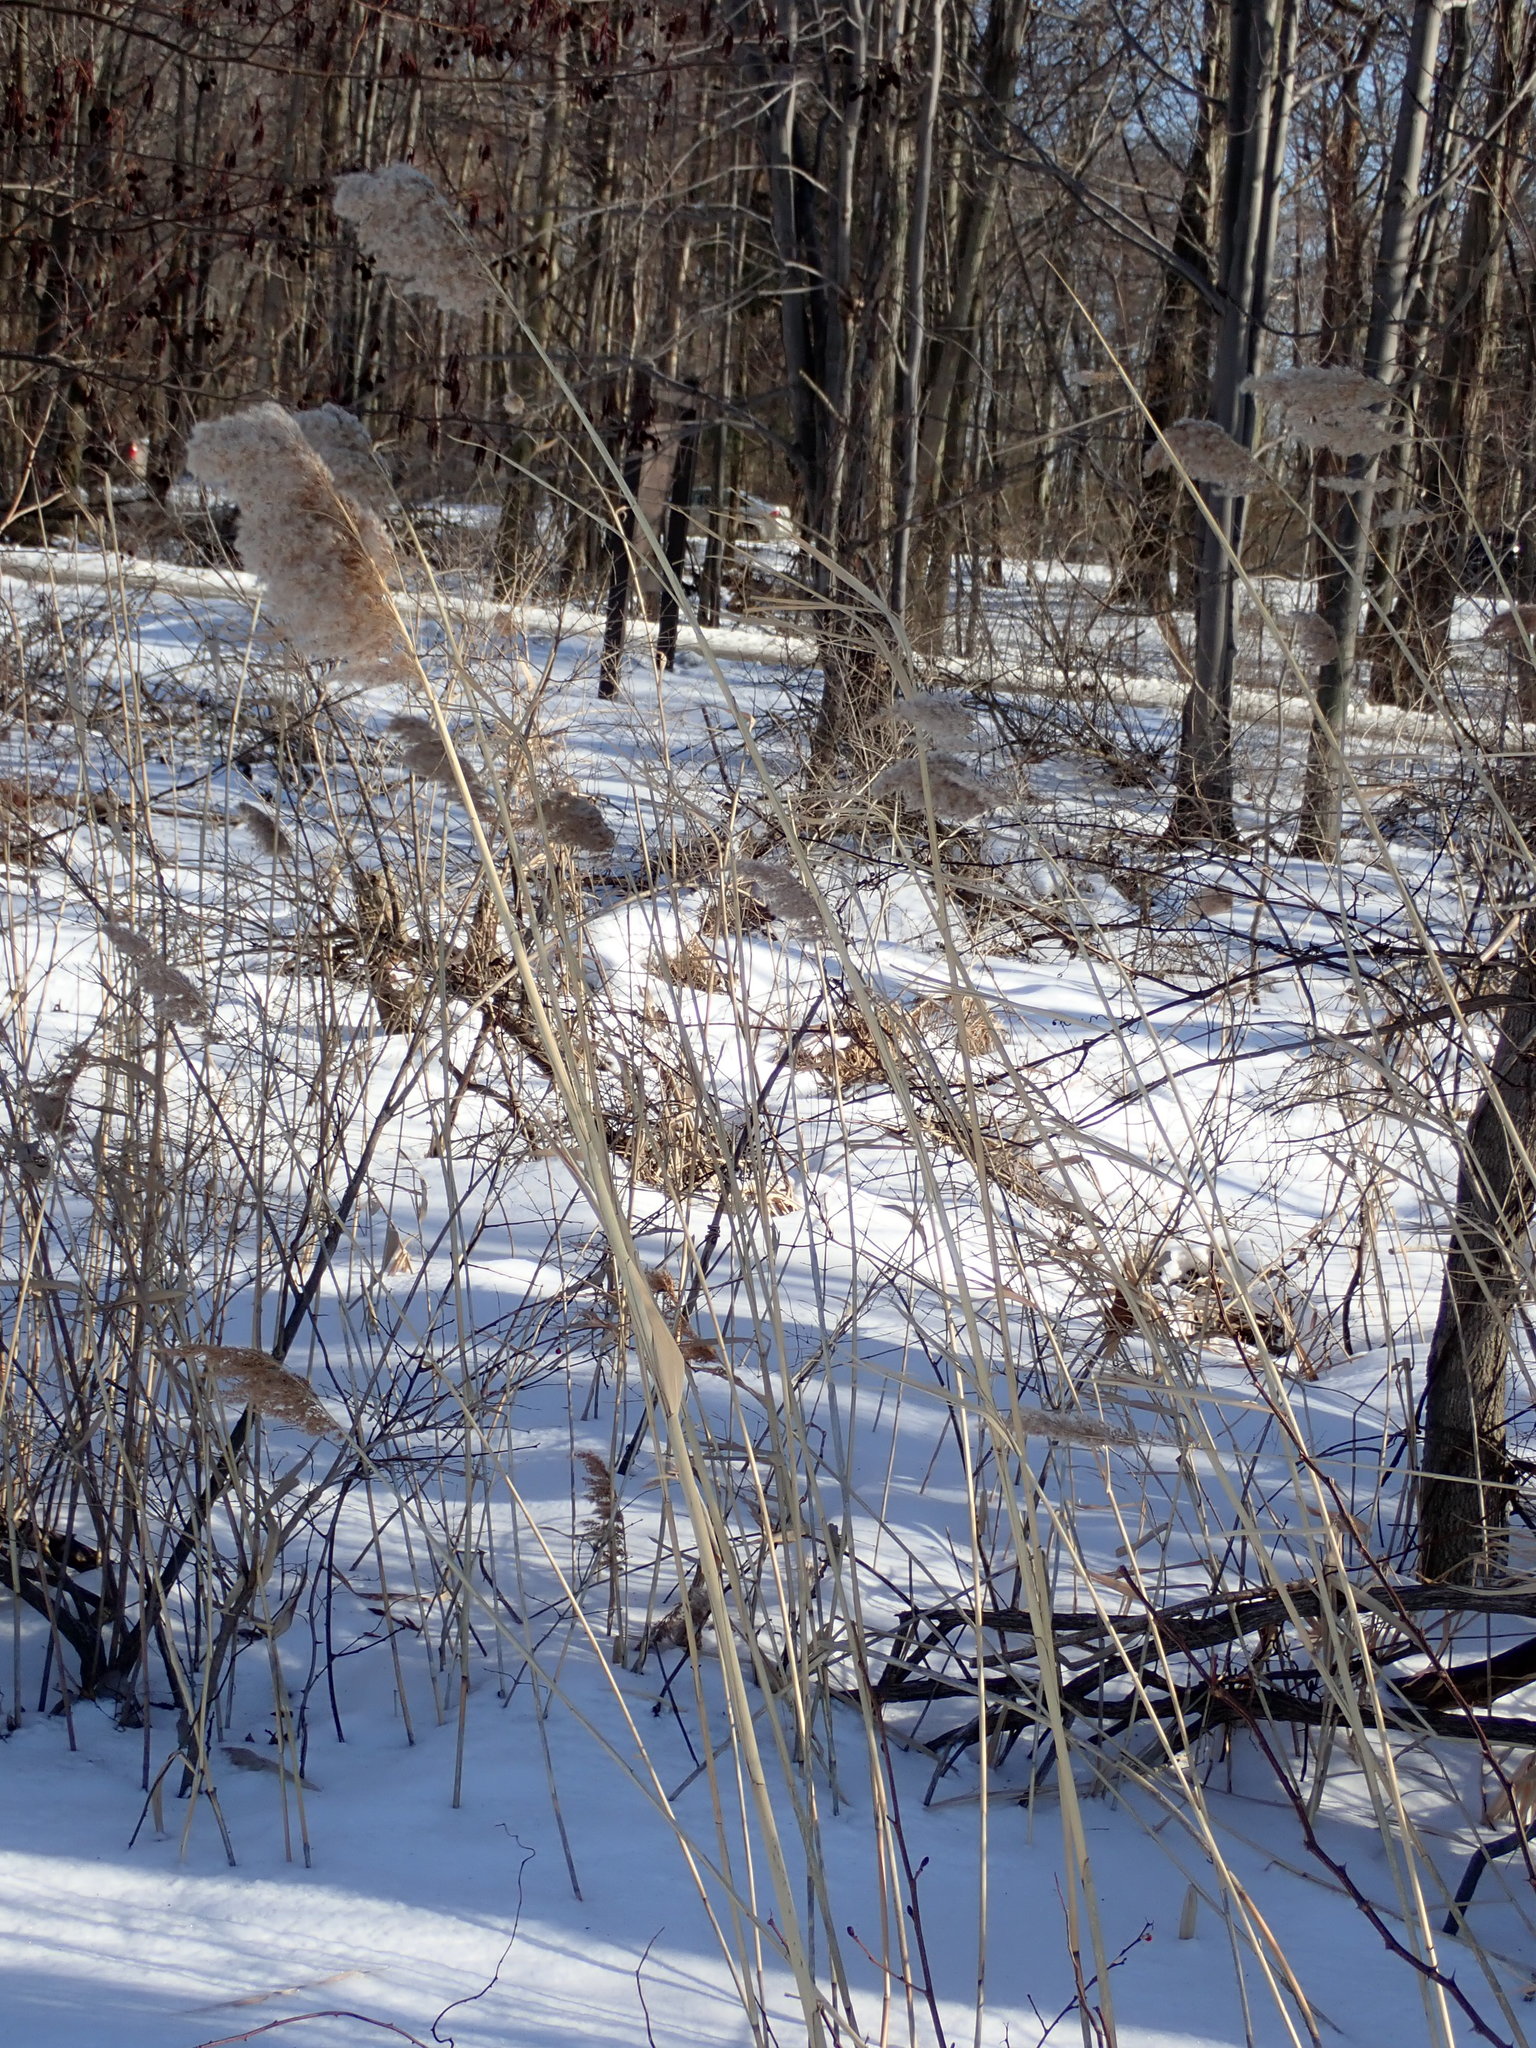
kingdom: Plantae
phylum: Tracheophyta
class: Liliopsida
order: Poales
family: Poaceae
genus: Phragmites
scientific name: Phragmites australis
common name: Common reed
